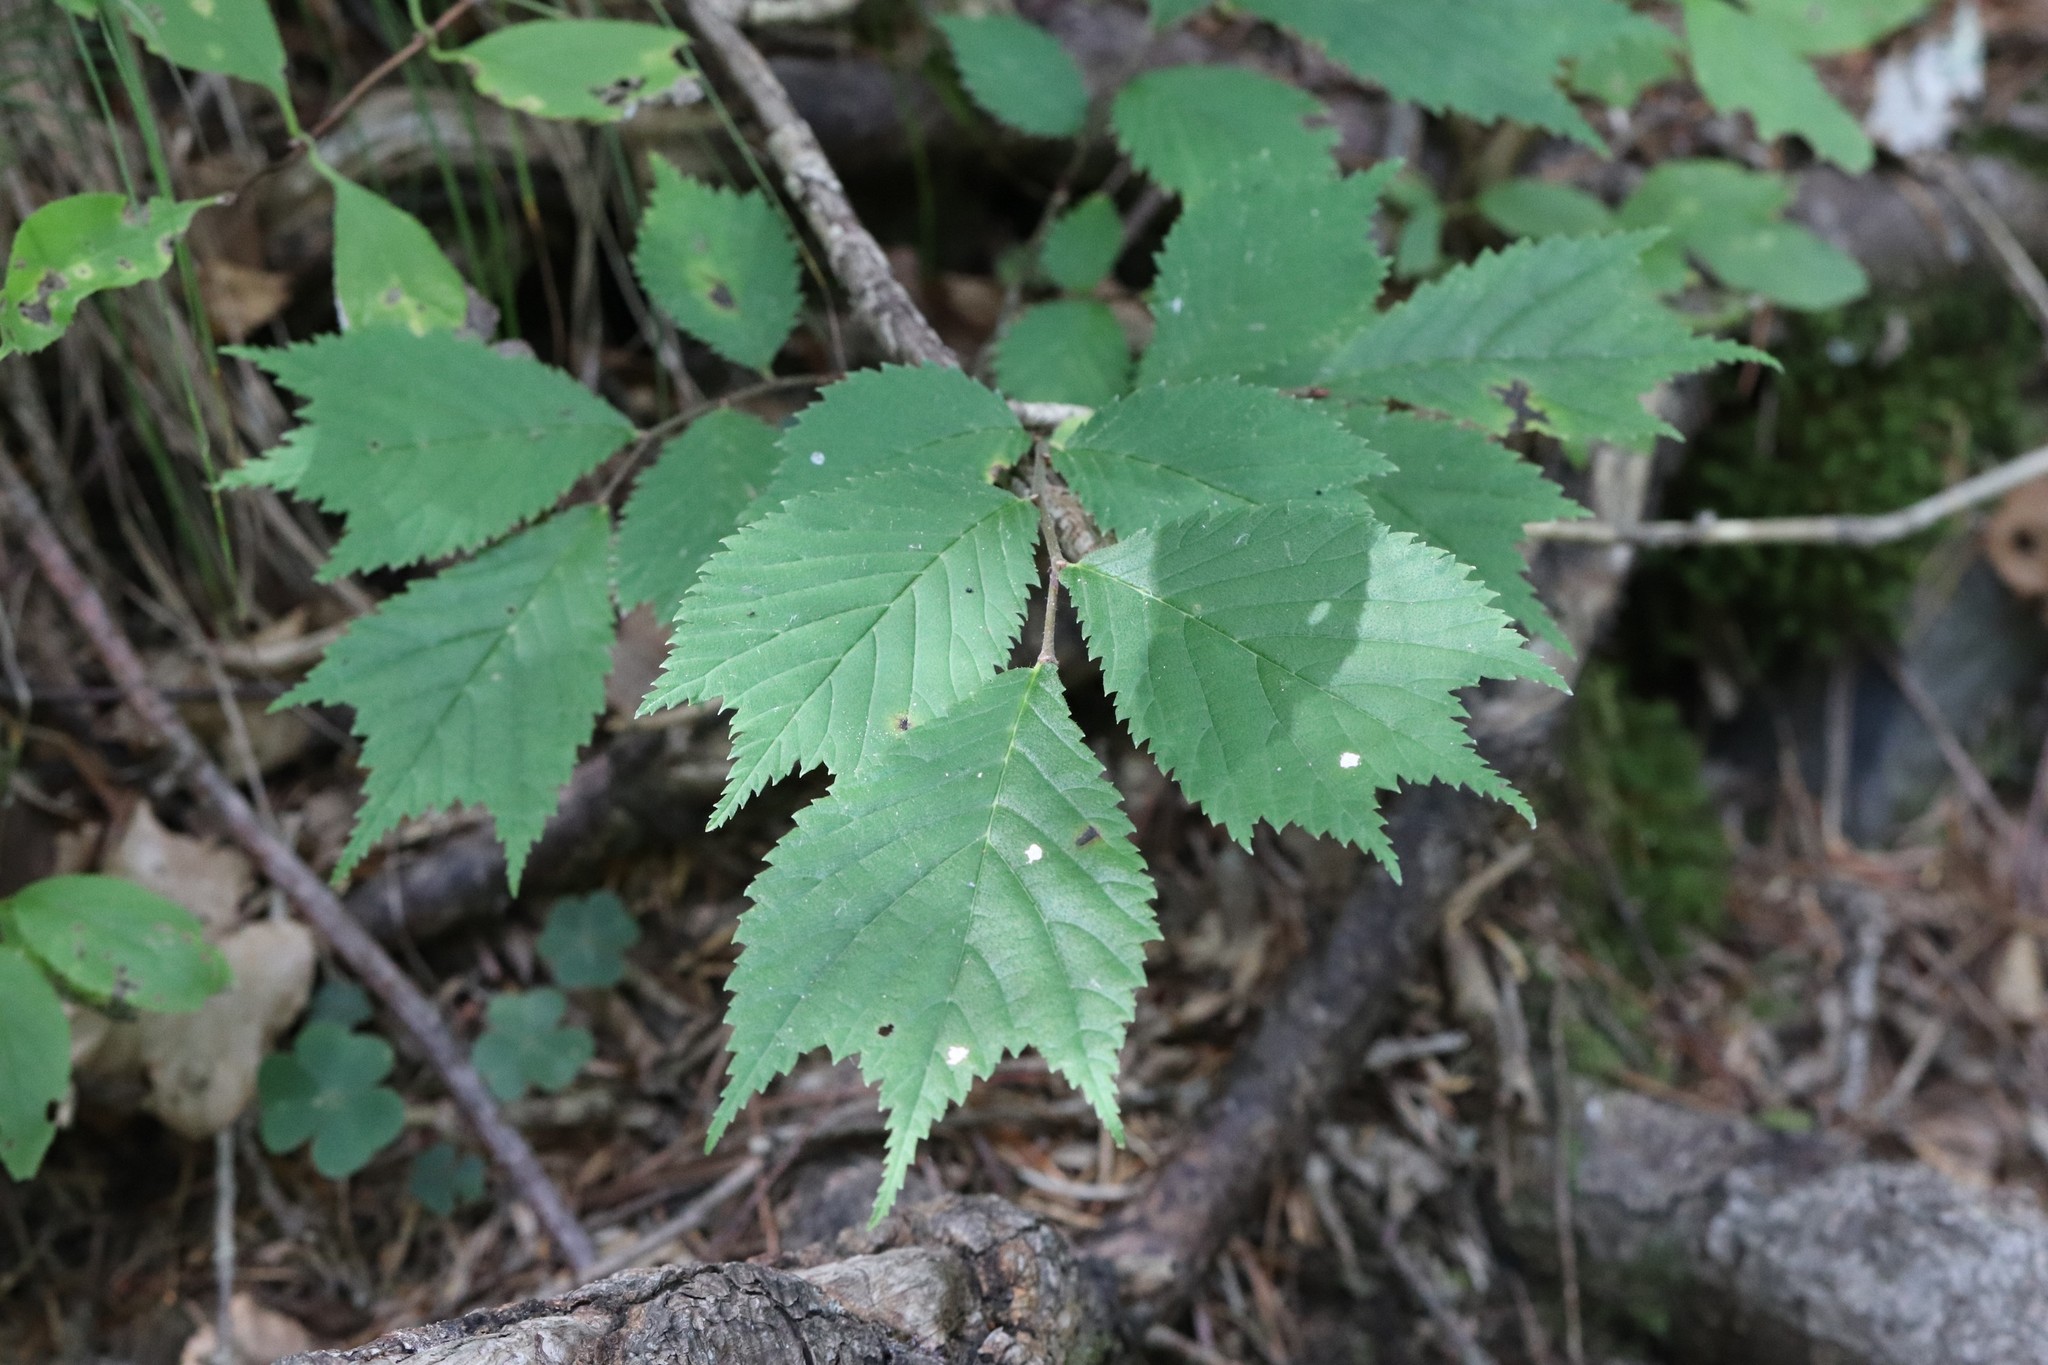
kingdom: Plantae
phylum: Tracheophyta
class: Magnoliopsida
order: Rosales
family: Ulmaceae
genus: Ulmus
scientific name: Ulmus laciniata
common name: Japanese elm
